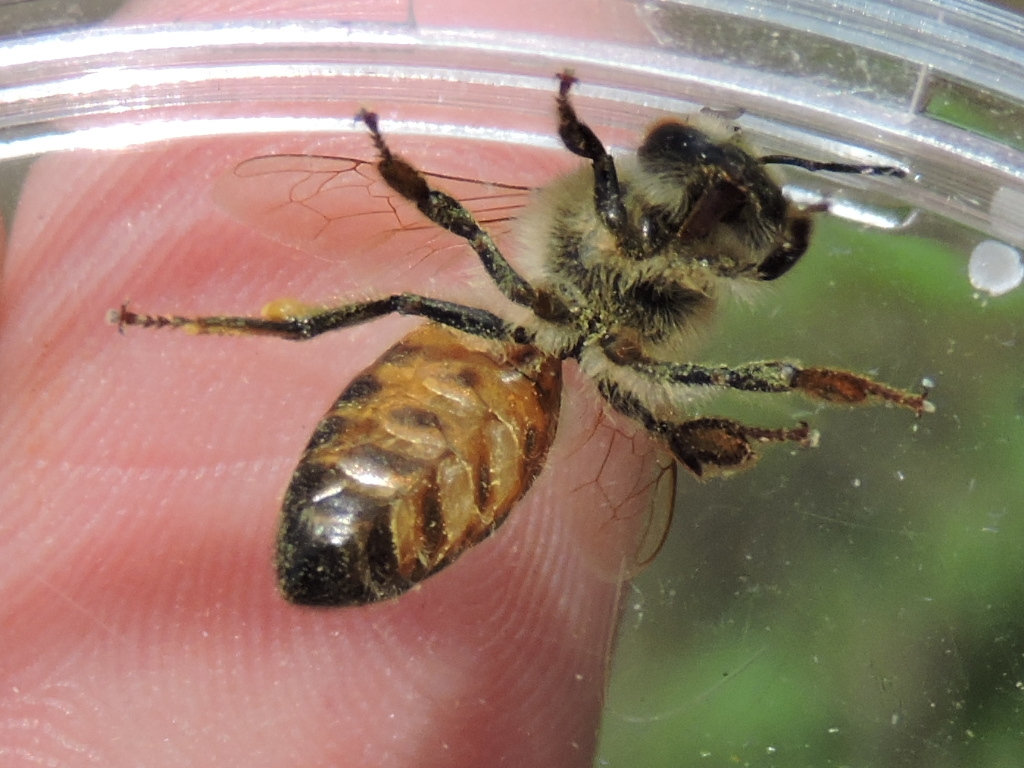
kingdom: Animalia
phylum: Arthropoda
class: Insecta
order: Hymenoptera
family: Apidae
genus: Apis
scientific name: Apis mellifera
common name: Honey bee
